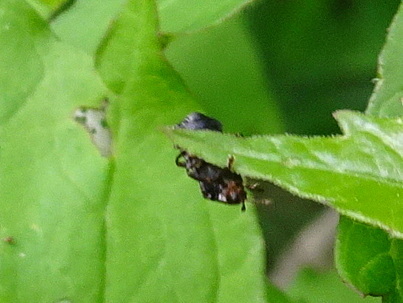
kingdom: Animalia
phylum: Arthropoda
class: Insecta
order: Coleoptera
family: Chrysomelidae
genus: Octotoma
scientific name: Octotoma plicatula
